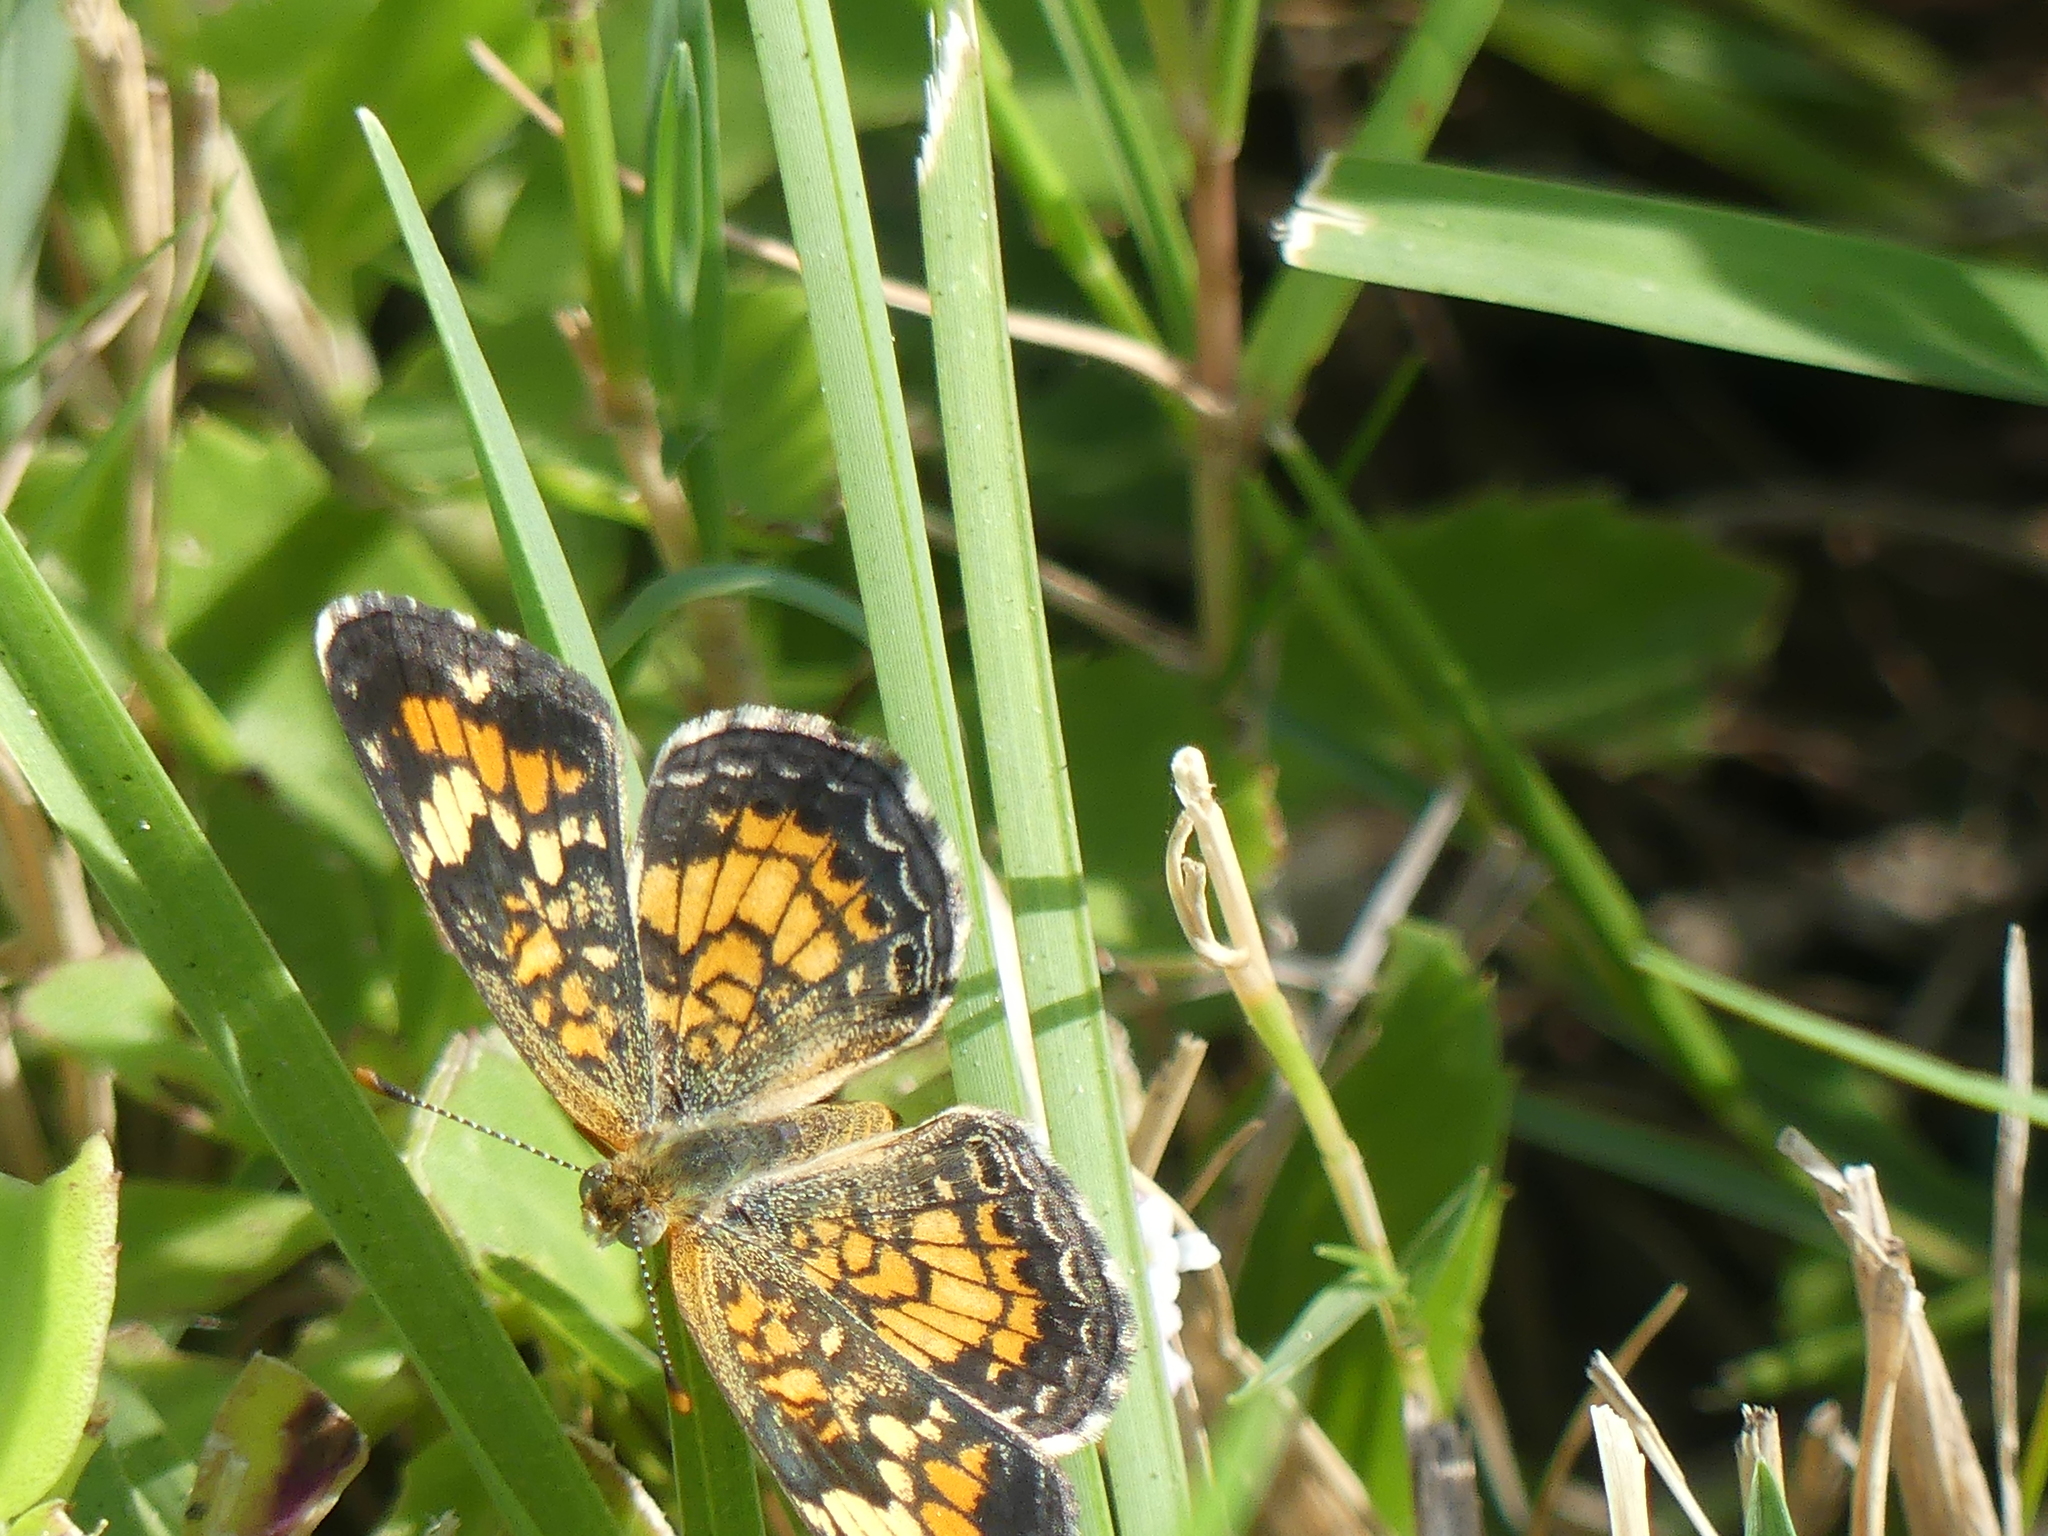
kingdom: Animalia
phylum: Arthropoda
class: Insecta
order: Lepidoptera
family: Nymphalidae
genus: Phyciodes
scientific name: Phyciodes phaon
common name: Phaon crescent
